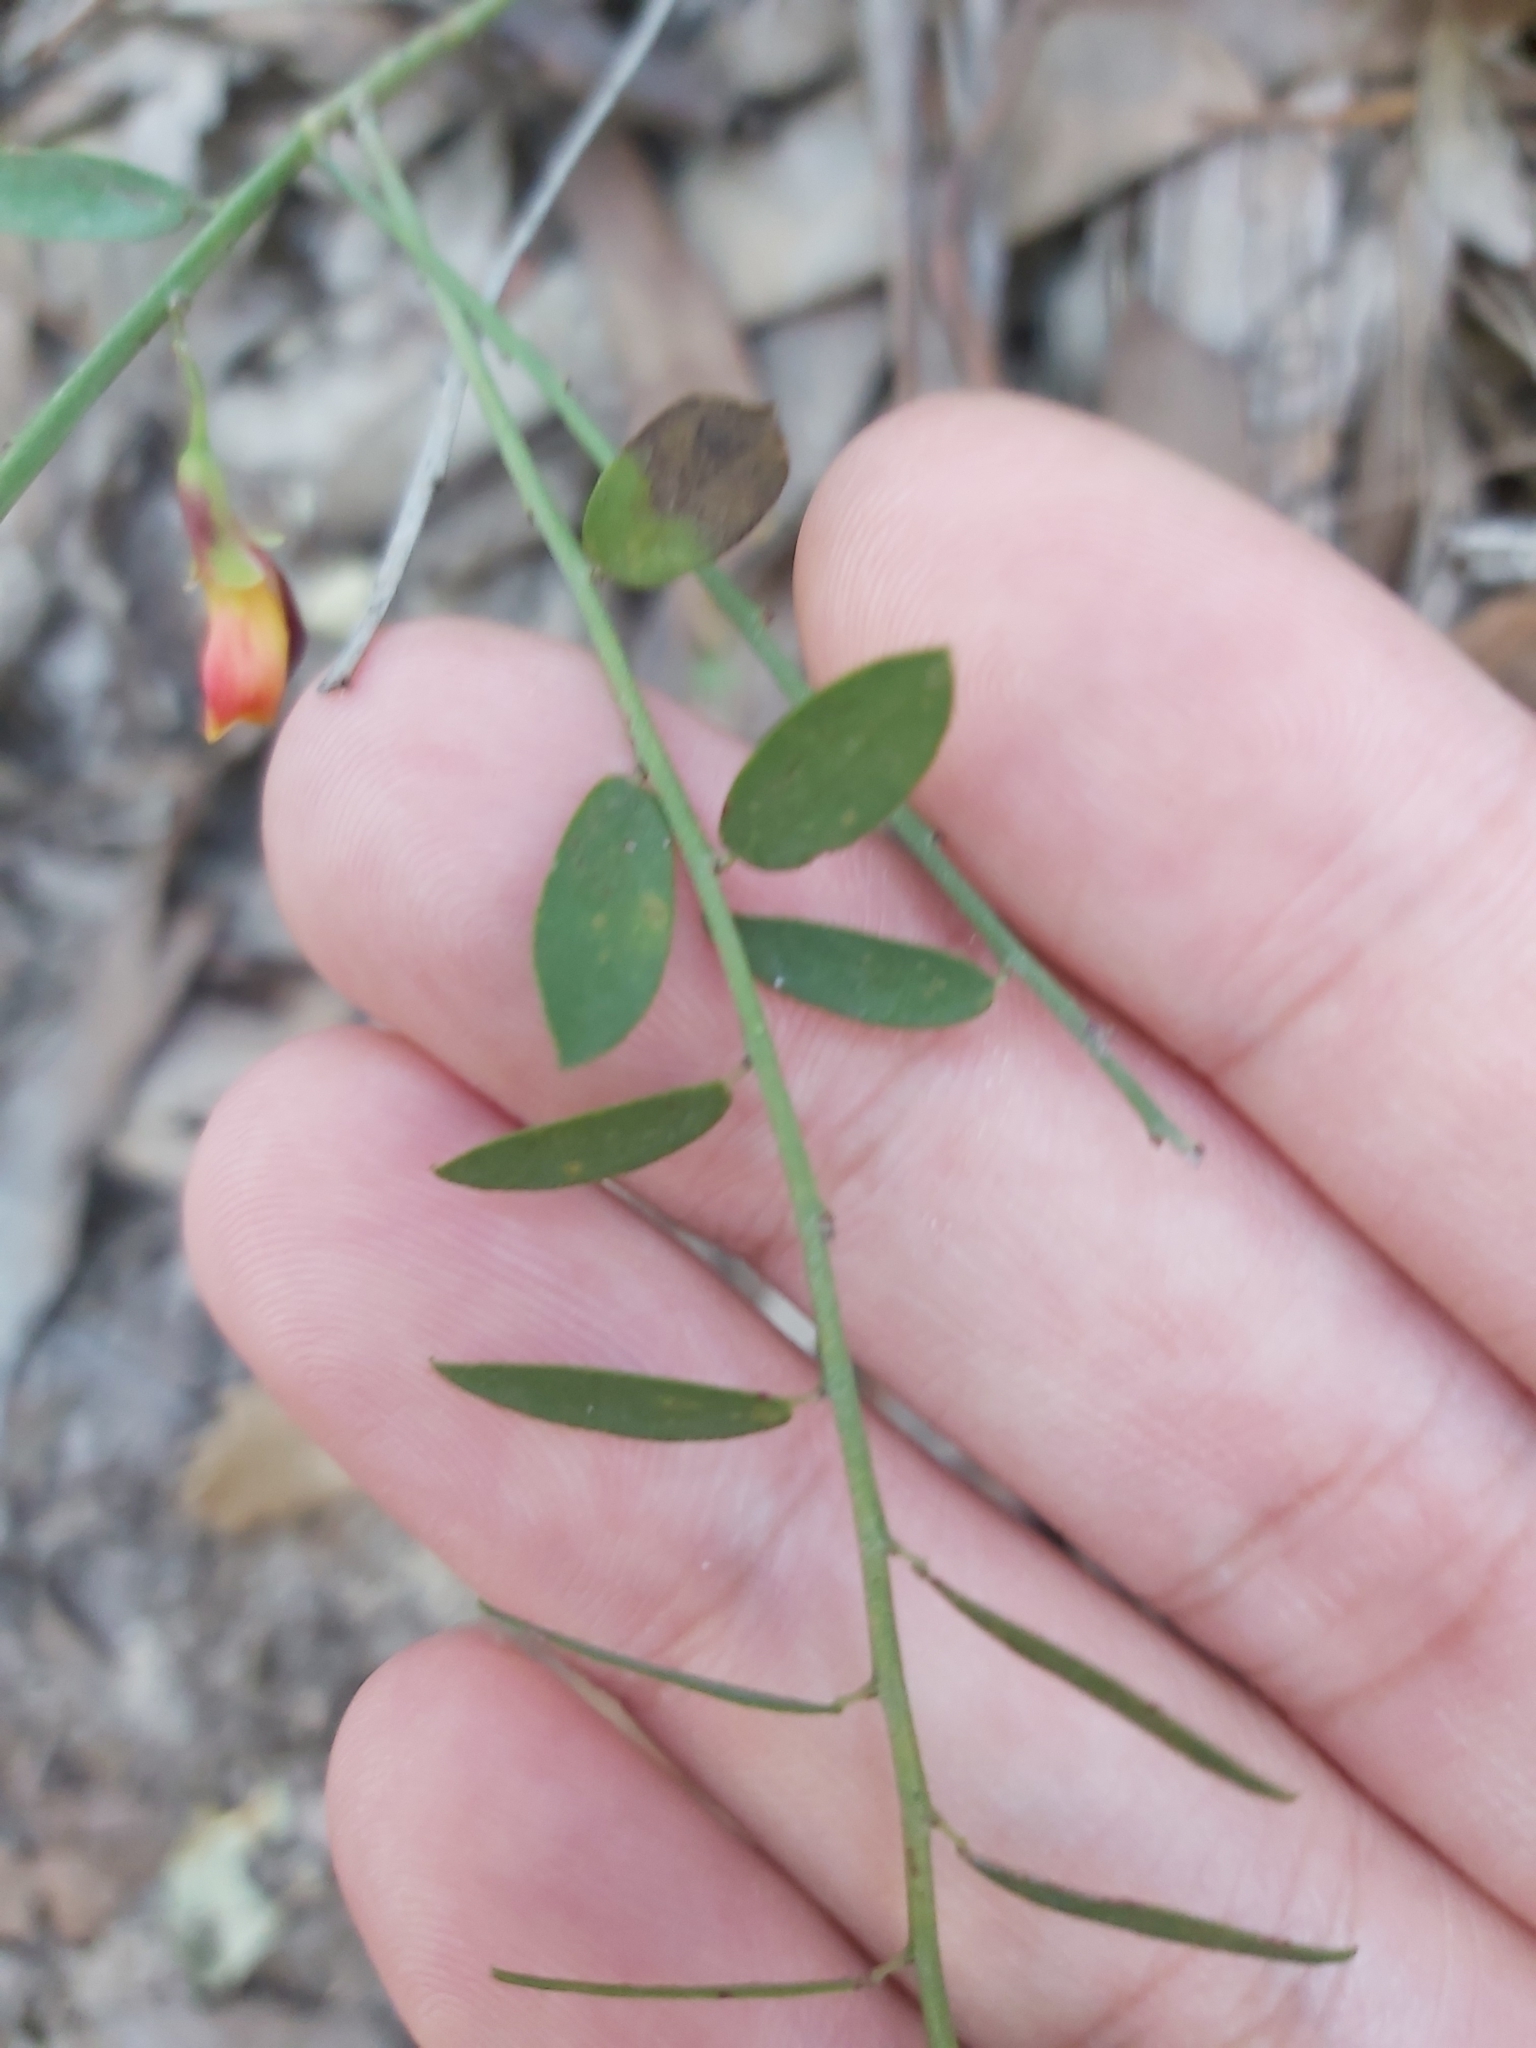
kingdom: Plantae
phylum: Tracheophyta
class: Magnoliopsida
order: Fabales
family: Fabaceae
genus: Bossiaea
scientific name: Bossiaea heterophylla
